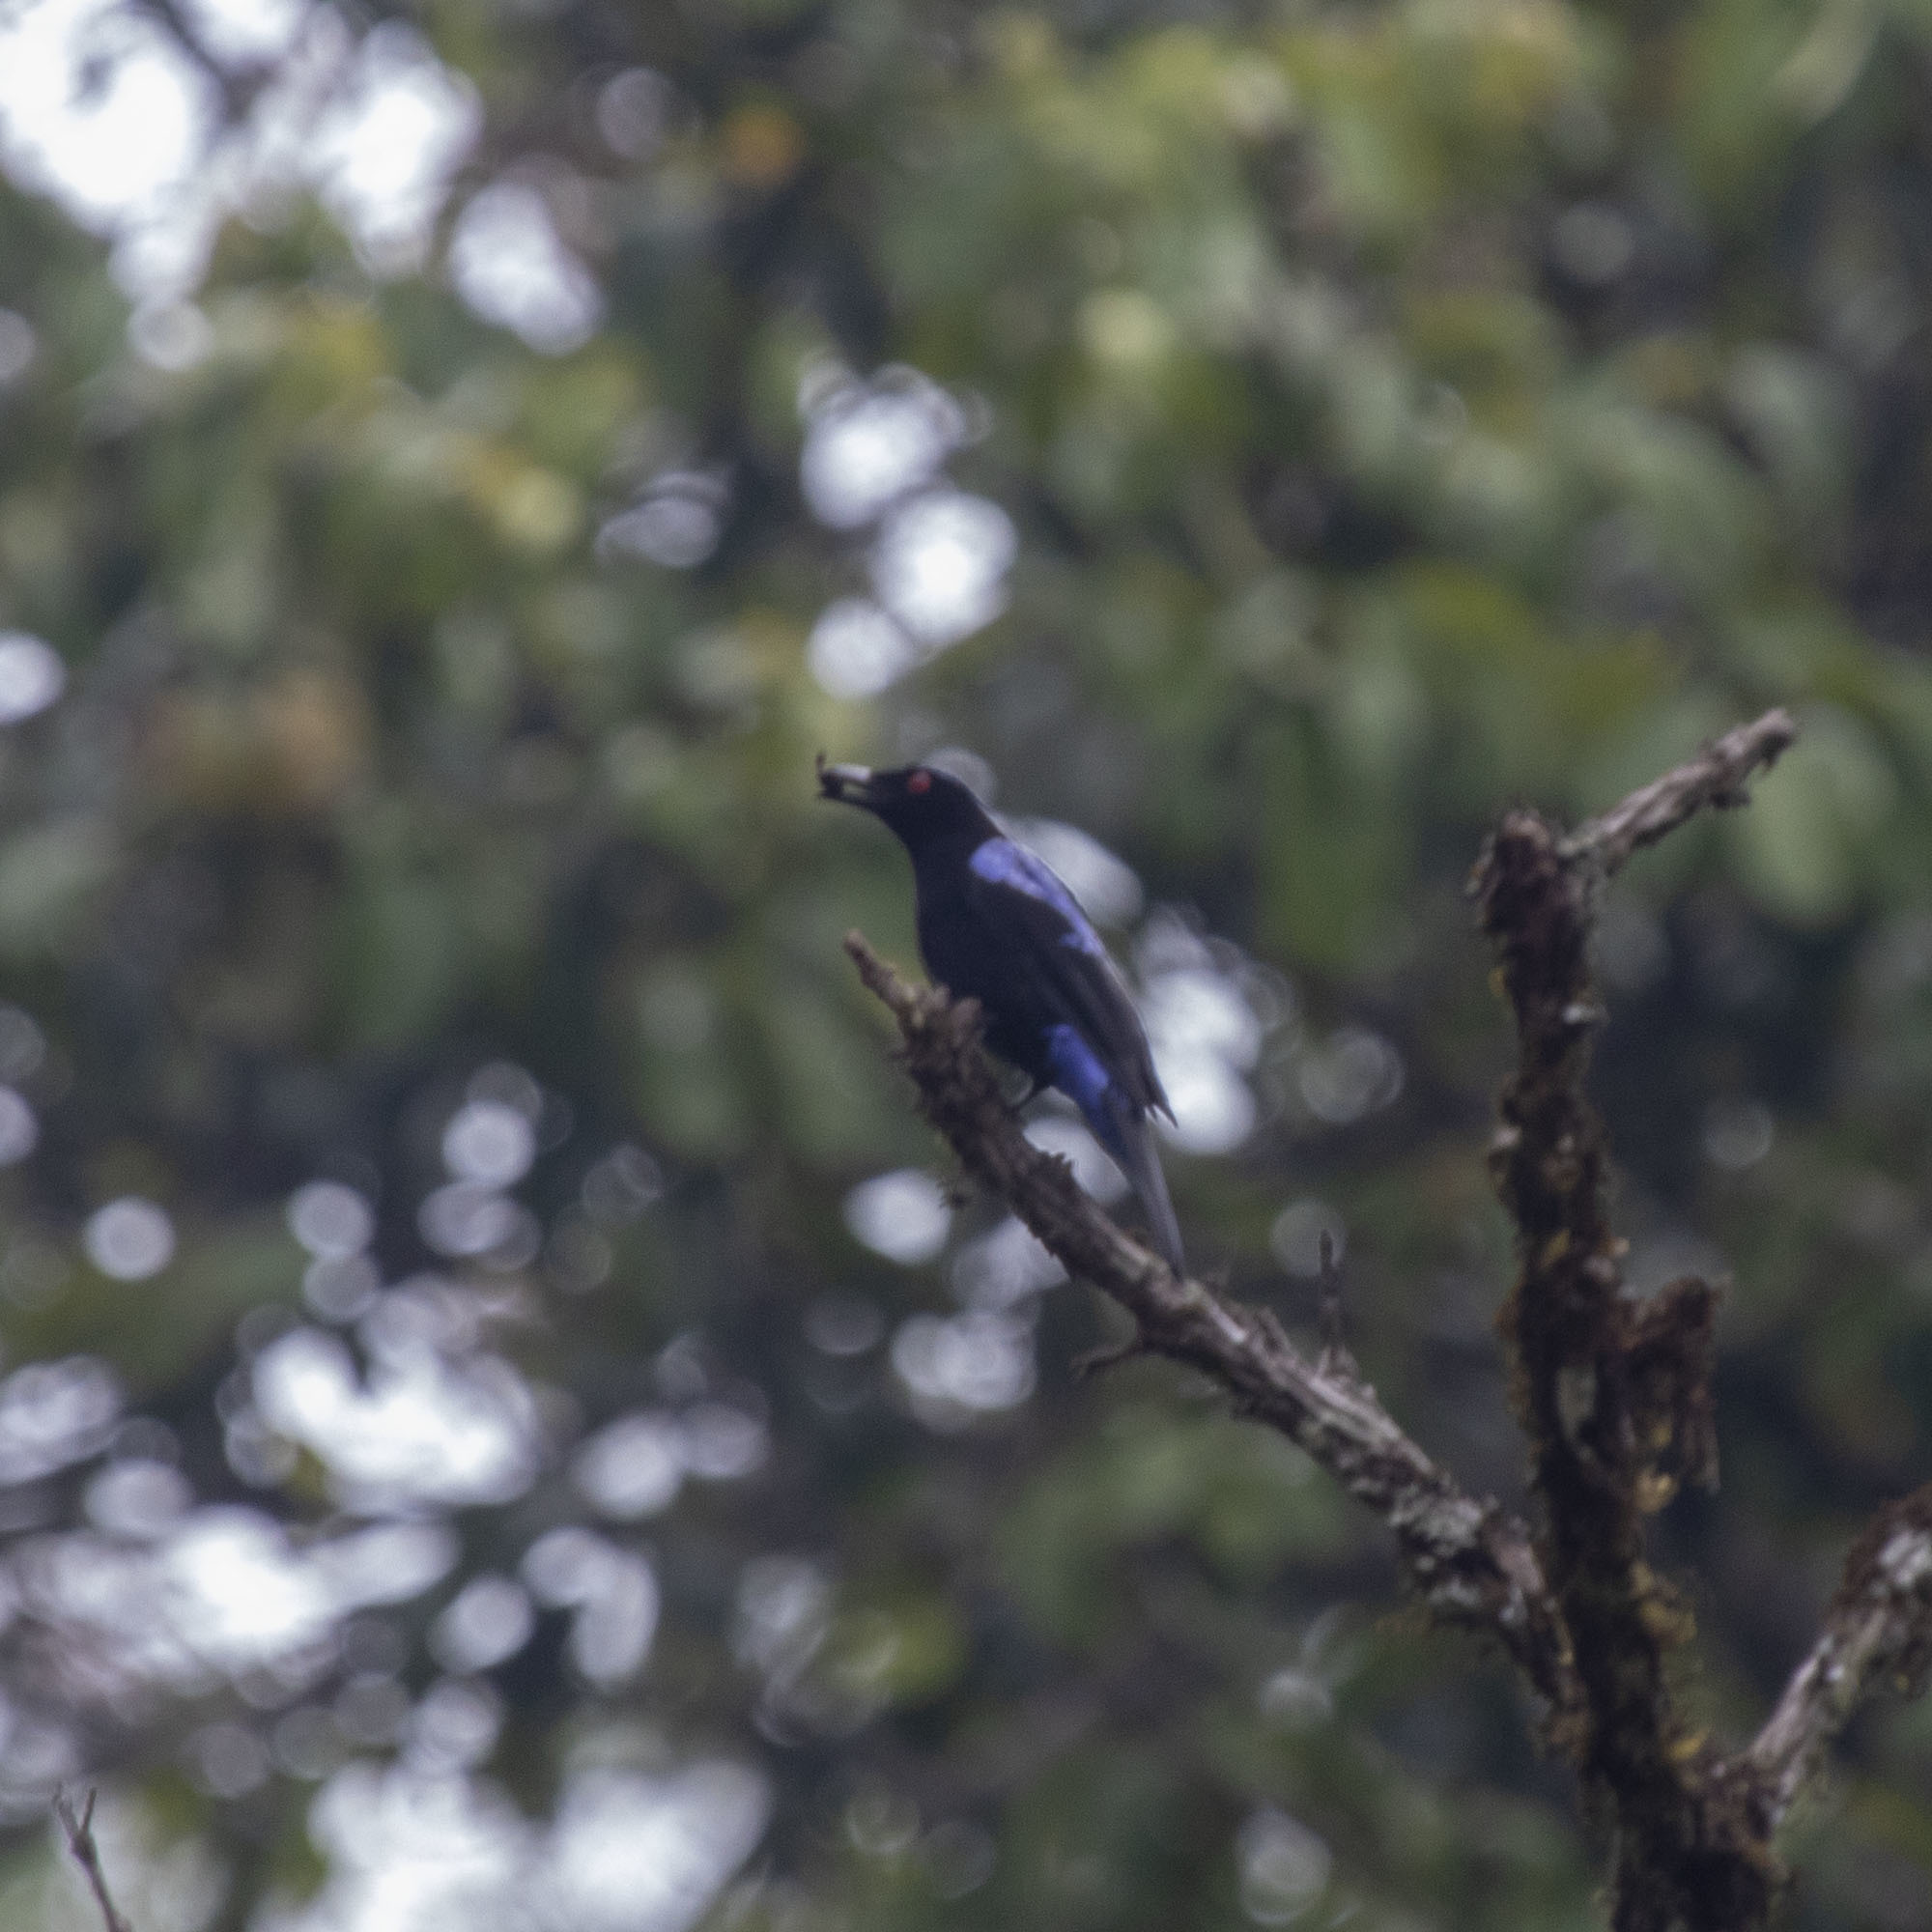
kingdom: Animalia
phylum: Chordata
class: Aves
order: Passeriformes
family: Irenidae
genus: Irena
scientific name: Irena puella
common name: Asian fairy-bluebird
